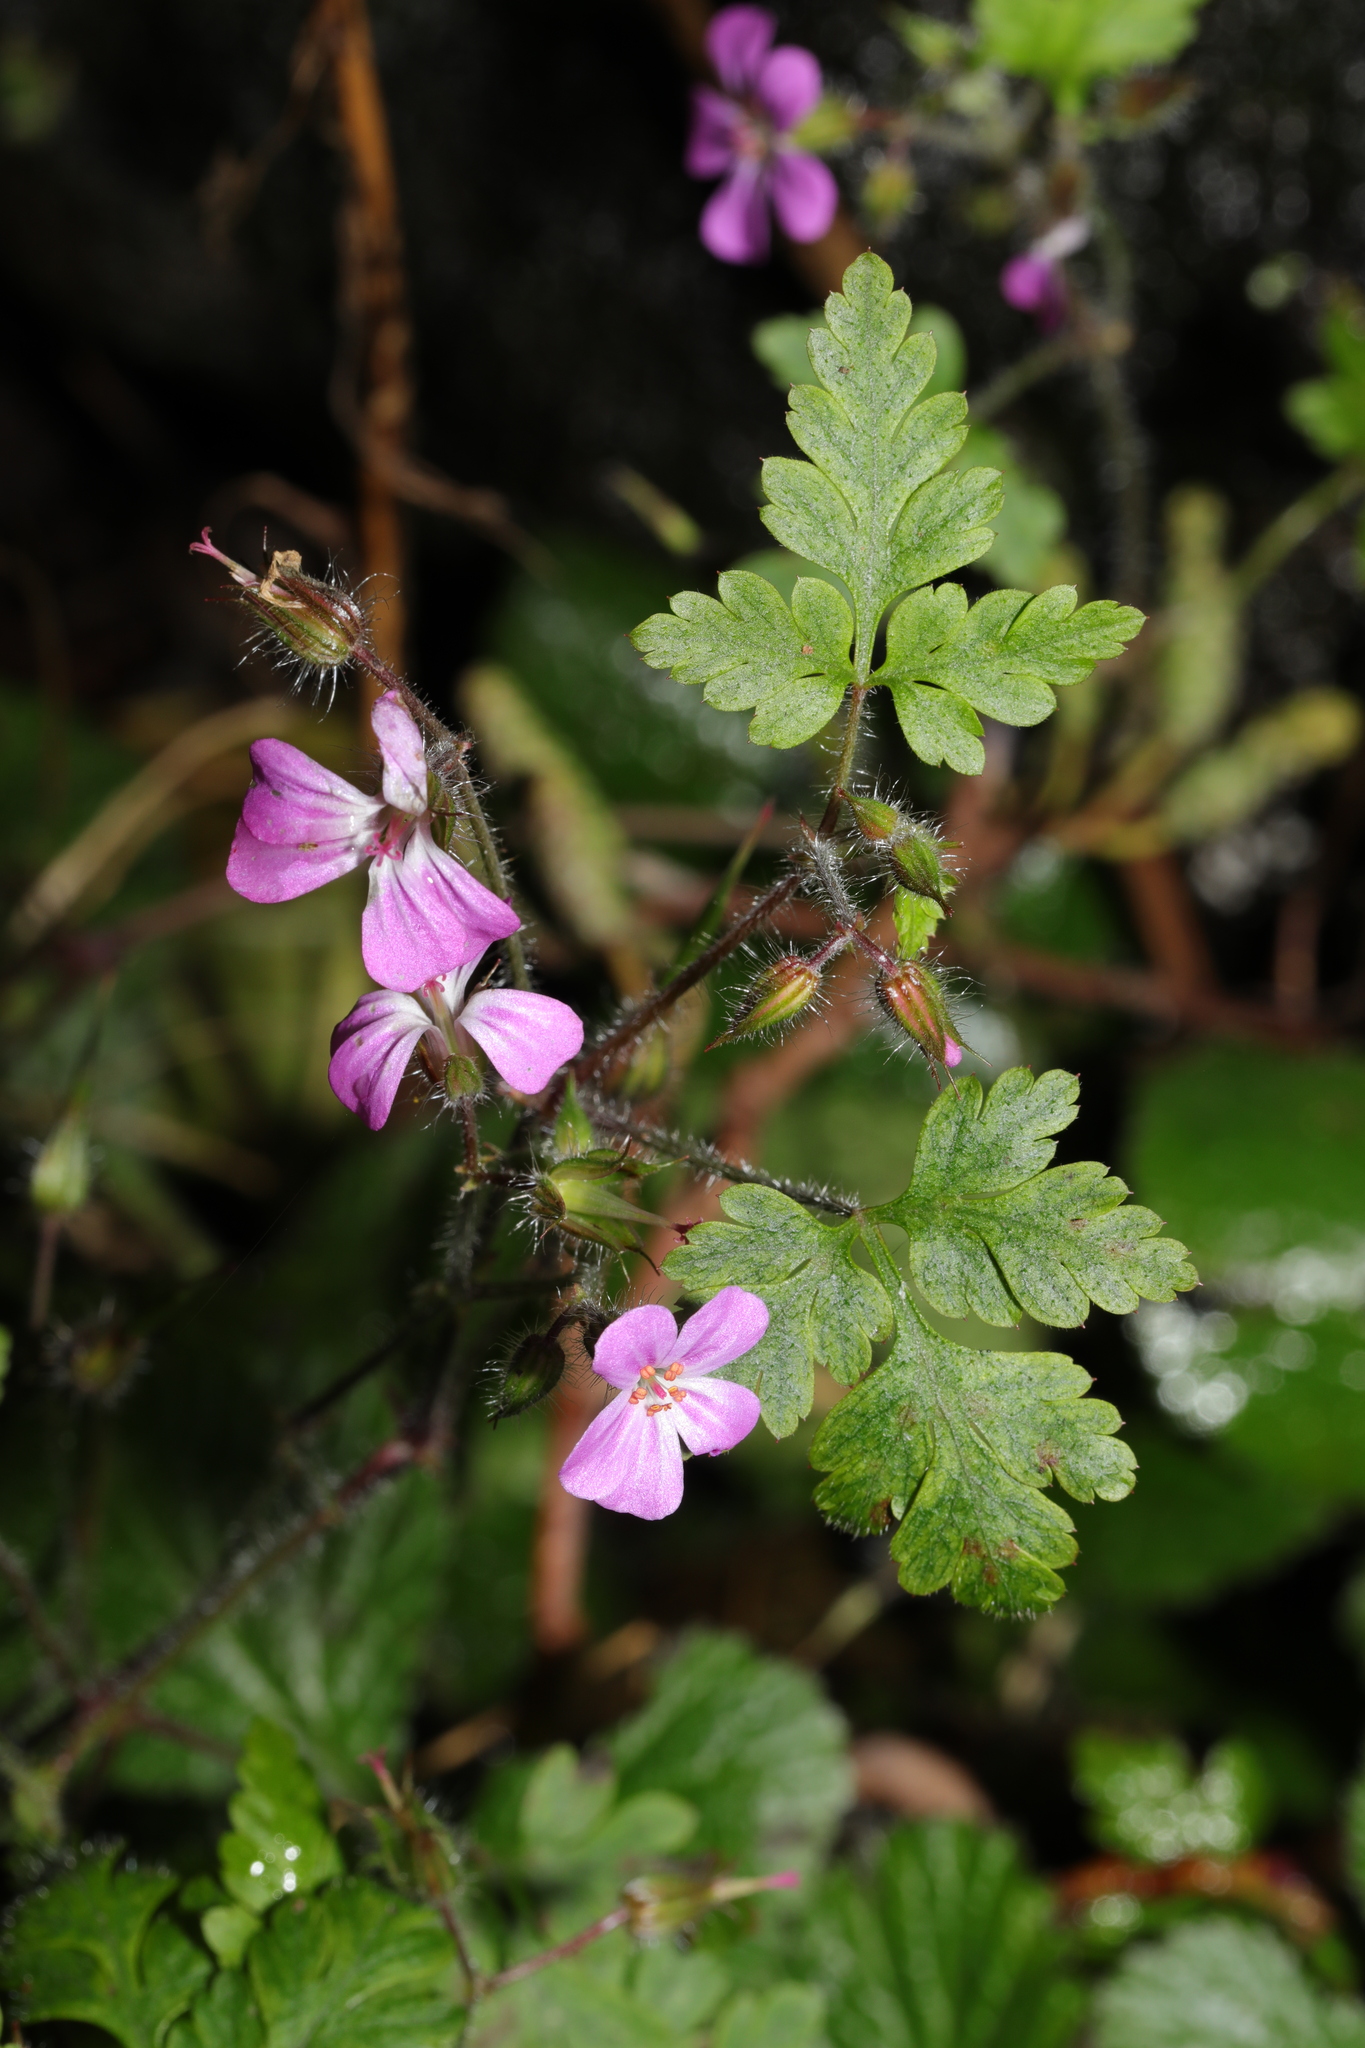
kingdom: Plantae
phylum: Tracheophyta
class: Magnoliopsida
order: Geraniales
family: Geraniaceae
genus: Geranium
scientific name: Geranium robertianum
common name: Herb-robert
